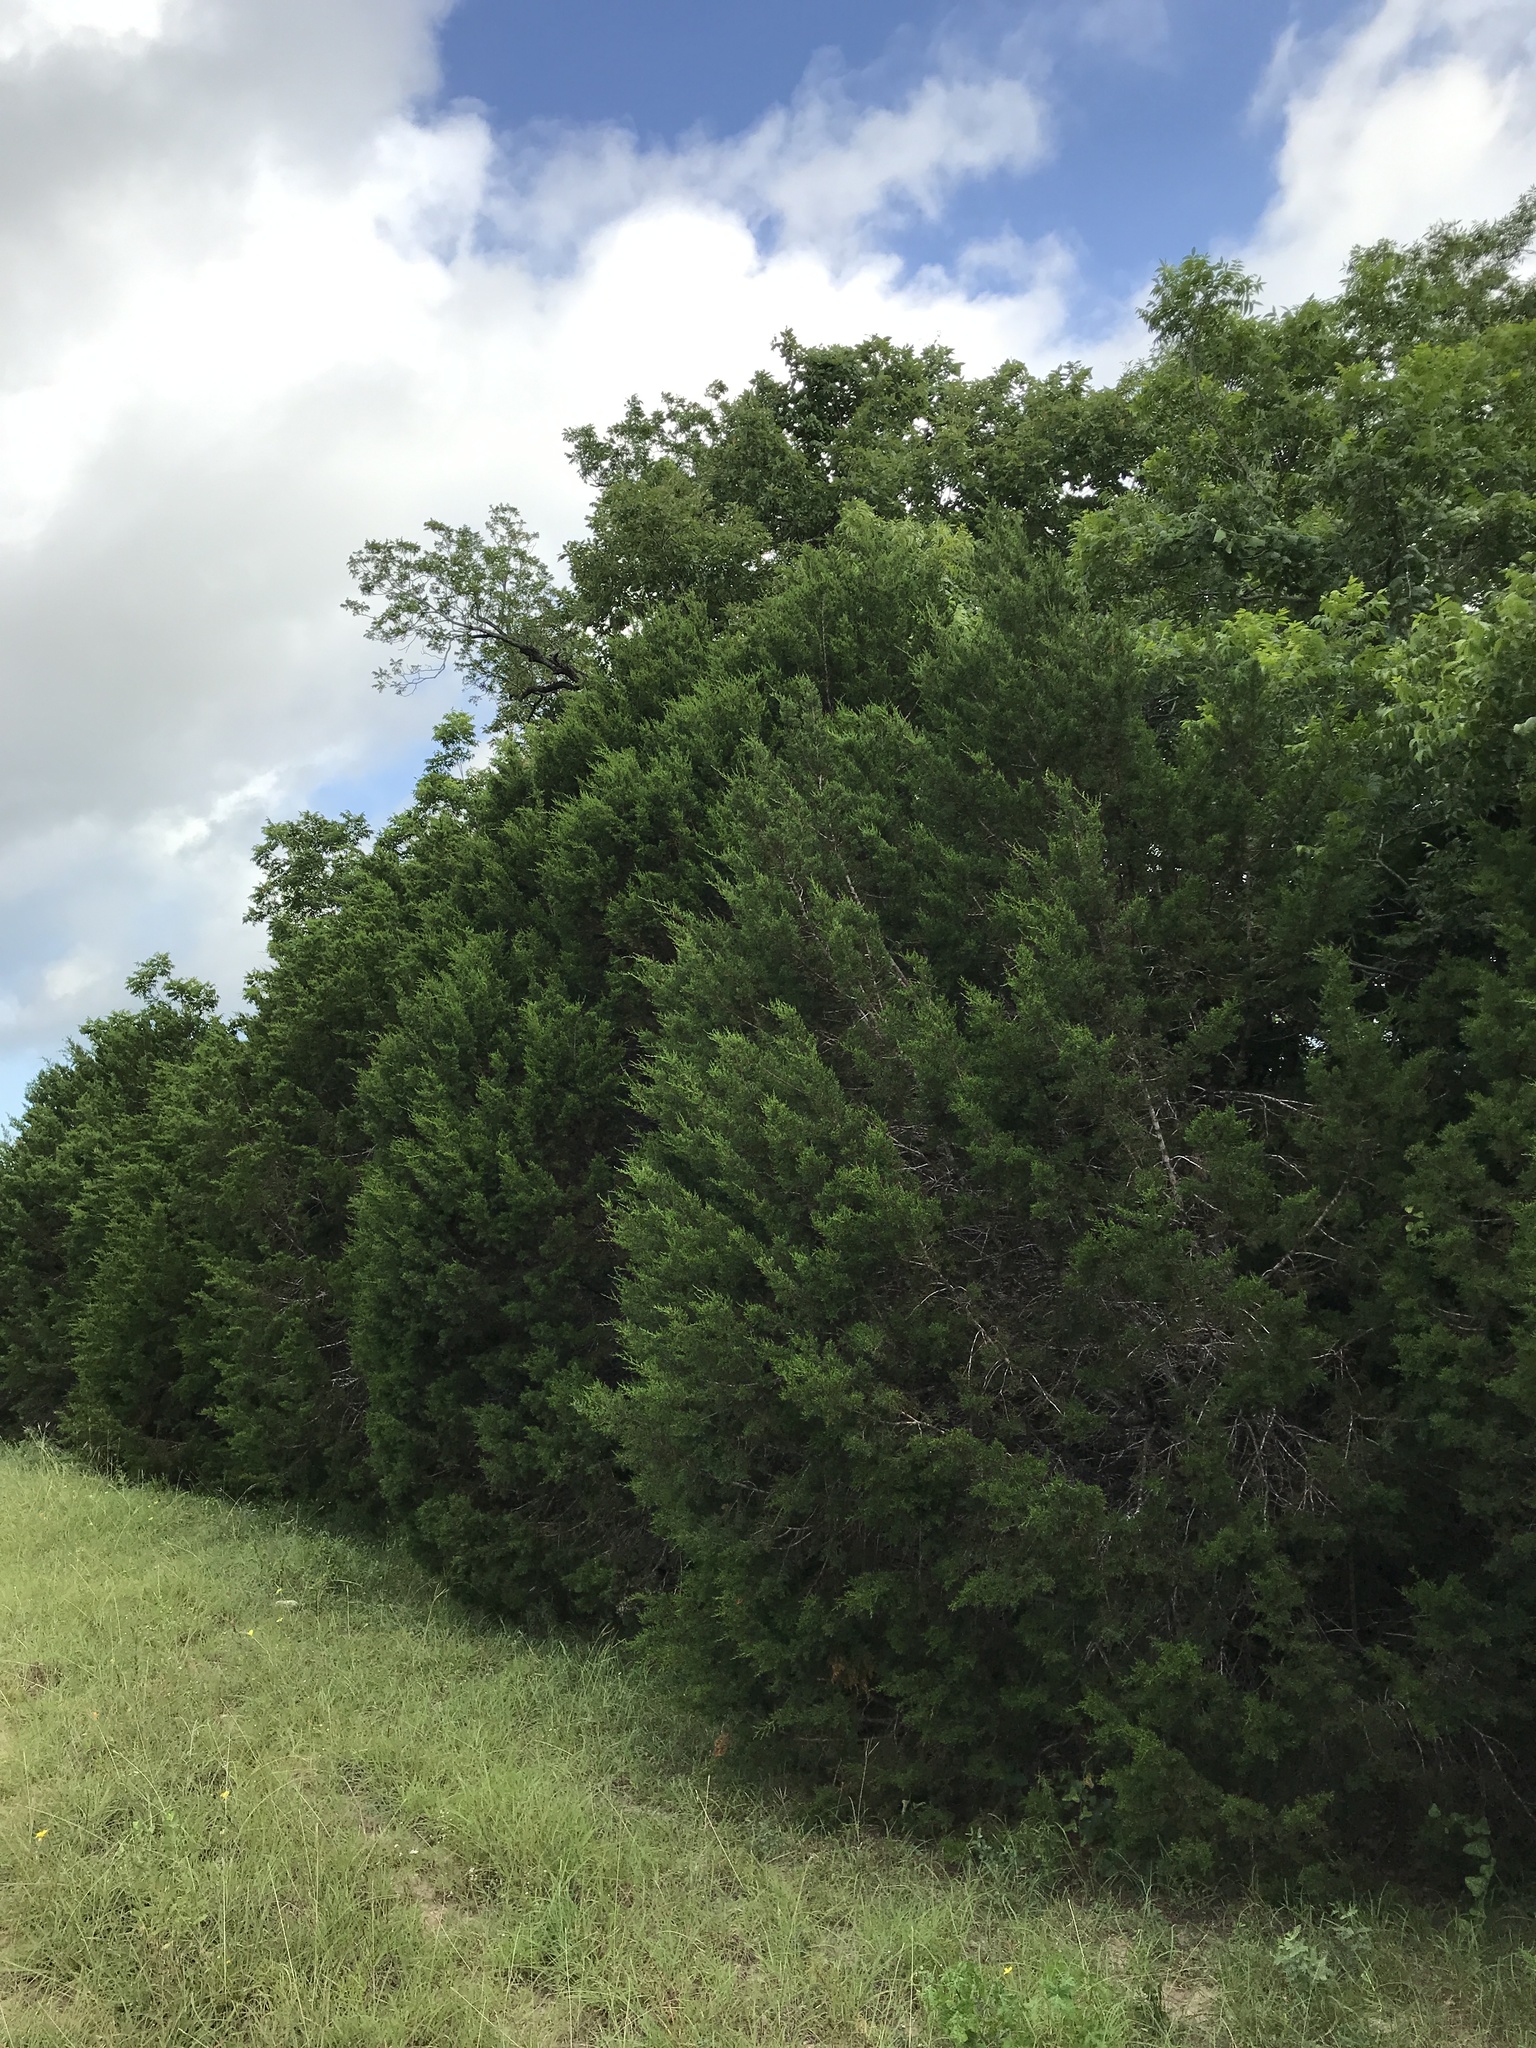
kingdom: Plantae
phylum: Tracheophyta
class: Pinopsida
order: Pinales
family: Cupressaceae
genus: Juniperus
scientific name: Juniperus ashei
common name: Mexican juniper
